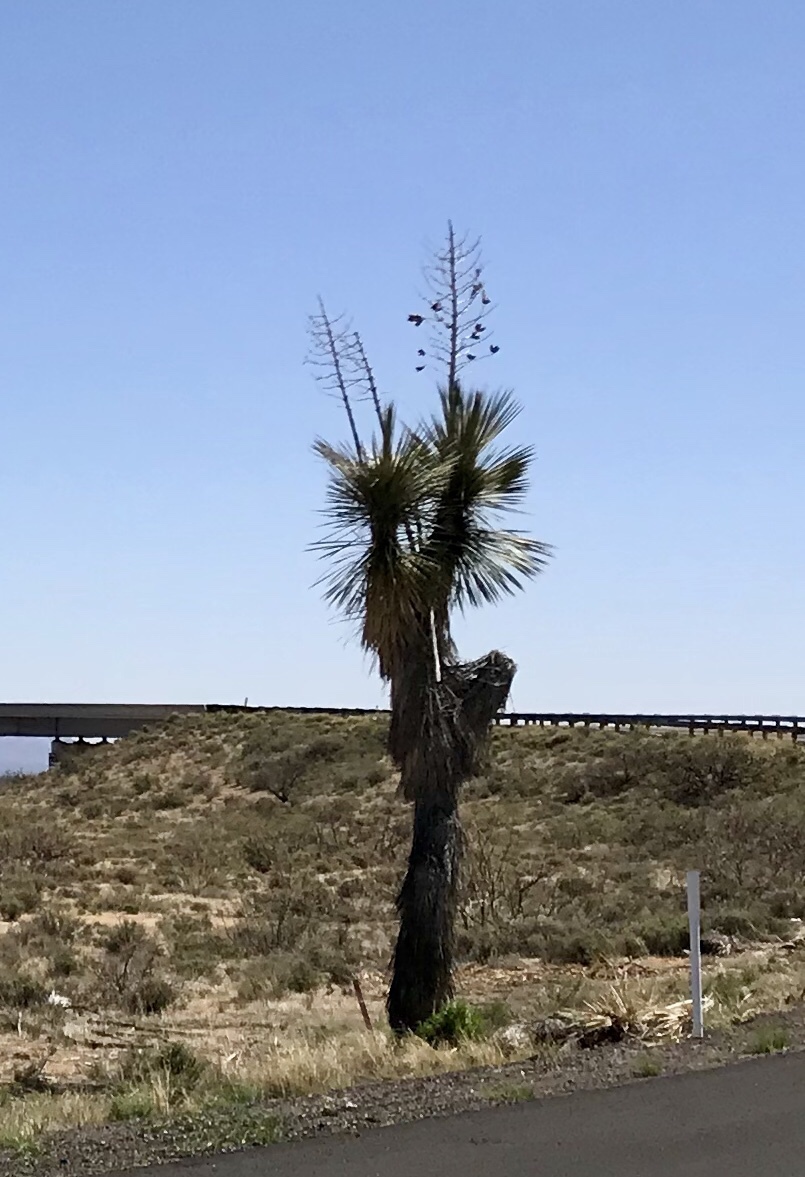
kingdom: Plantae
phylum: Tracheophyta
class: Liliopsida
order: Asparagales
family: Asparagaceae
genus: Yucca
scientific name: Yucca elata
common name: Palmella
